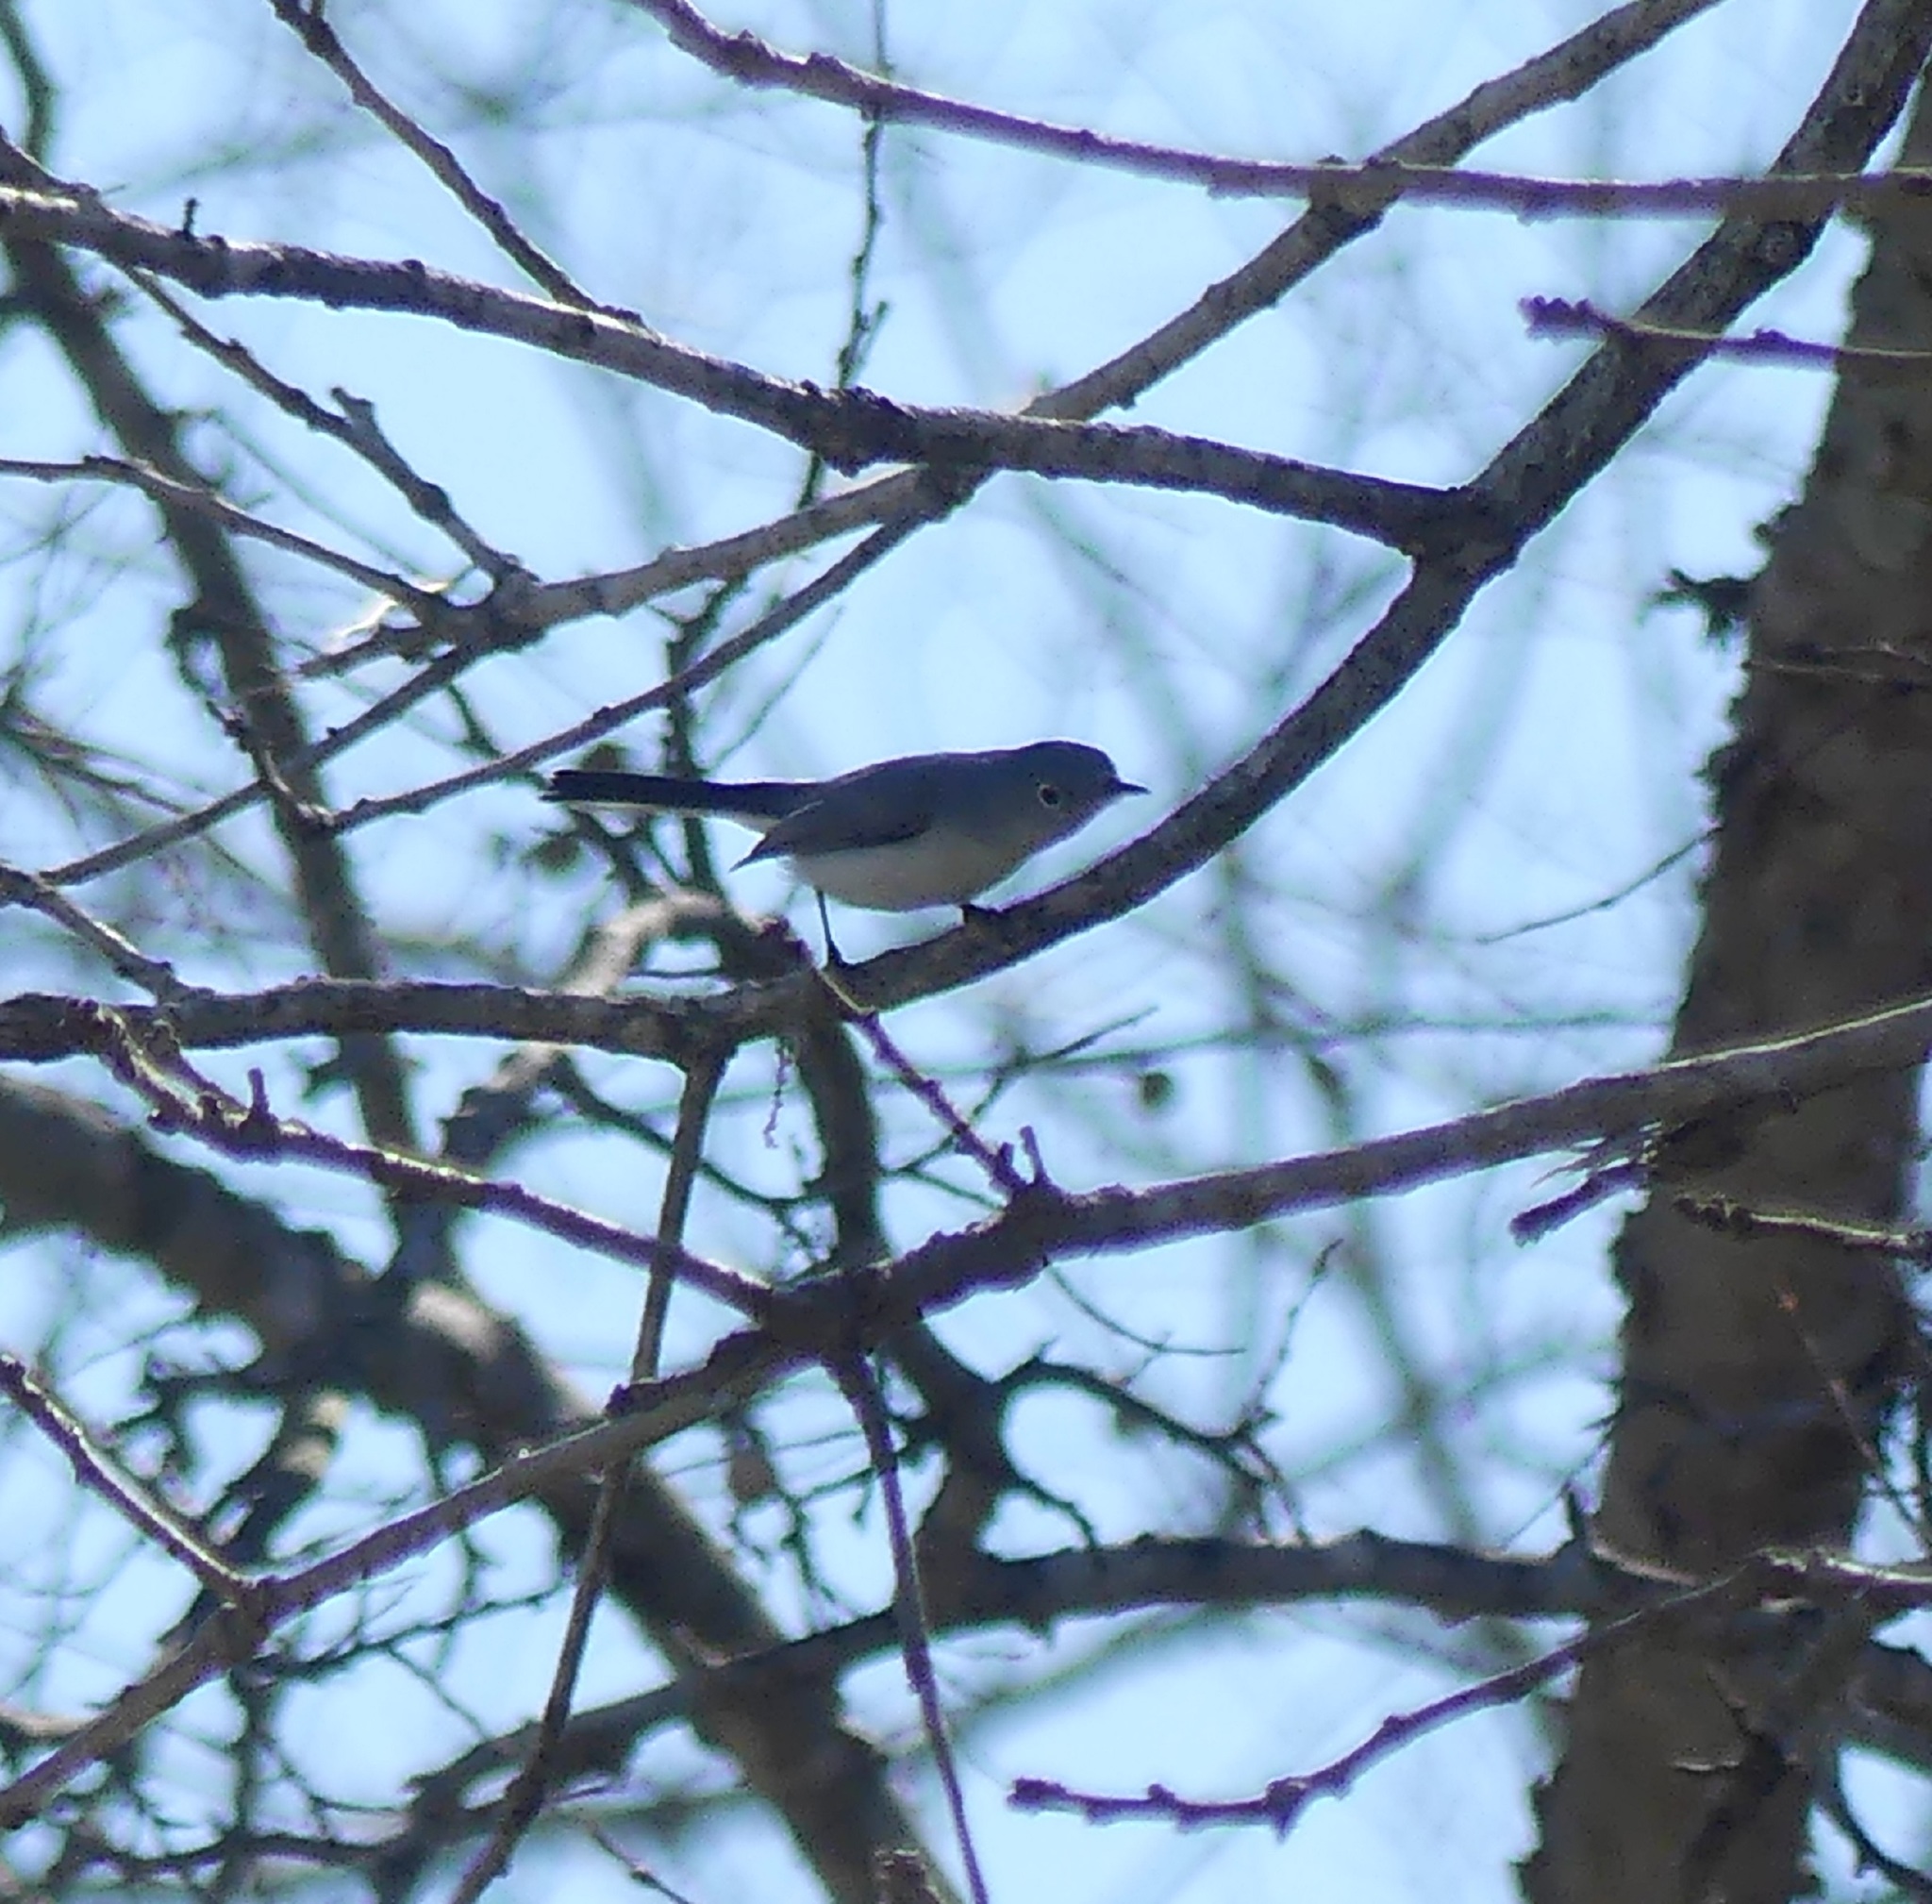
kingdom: Animalia
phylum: Chordata
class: Aves
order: Passeriformes
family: Polioptilidae
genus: Polioptila
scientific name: Polioptila caerulea
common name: Blue-gray gnatcatcher
